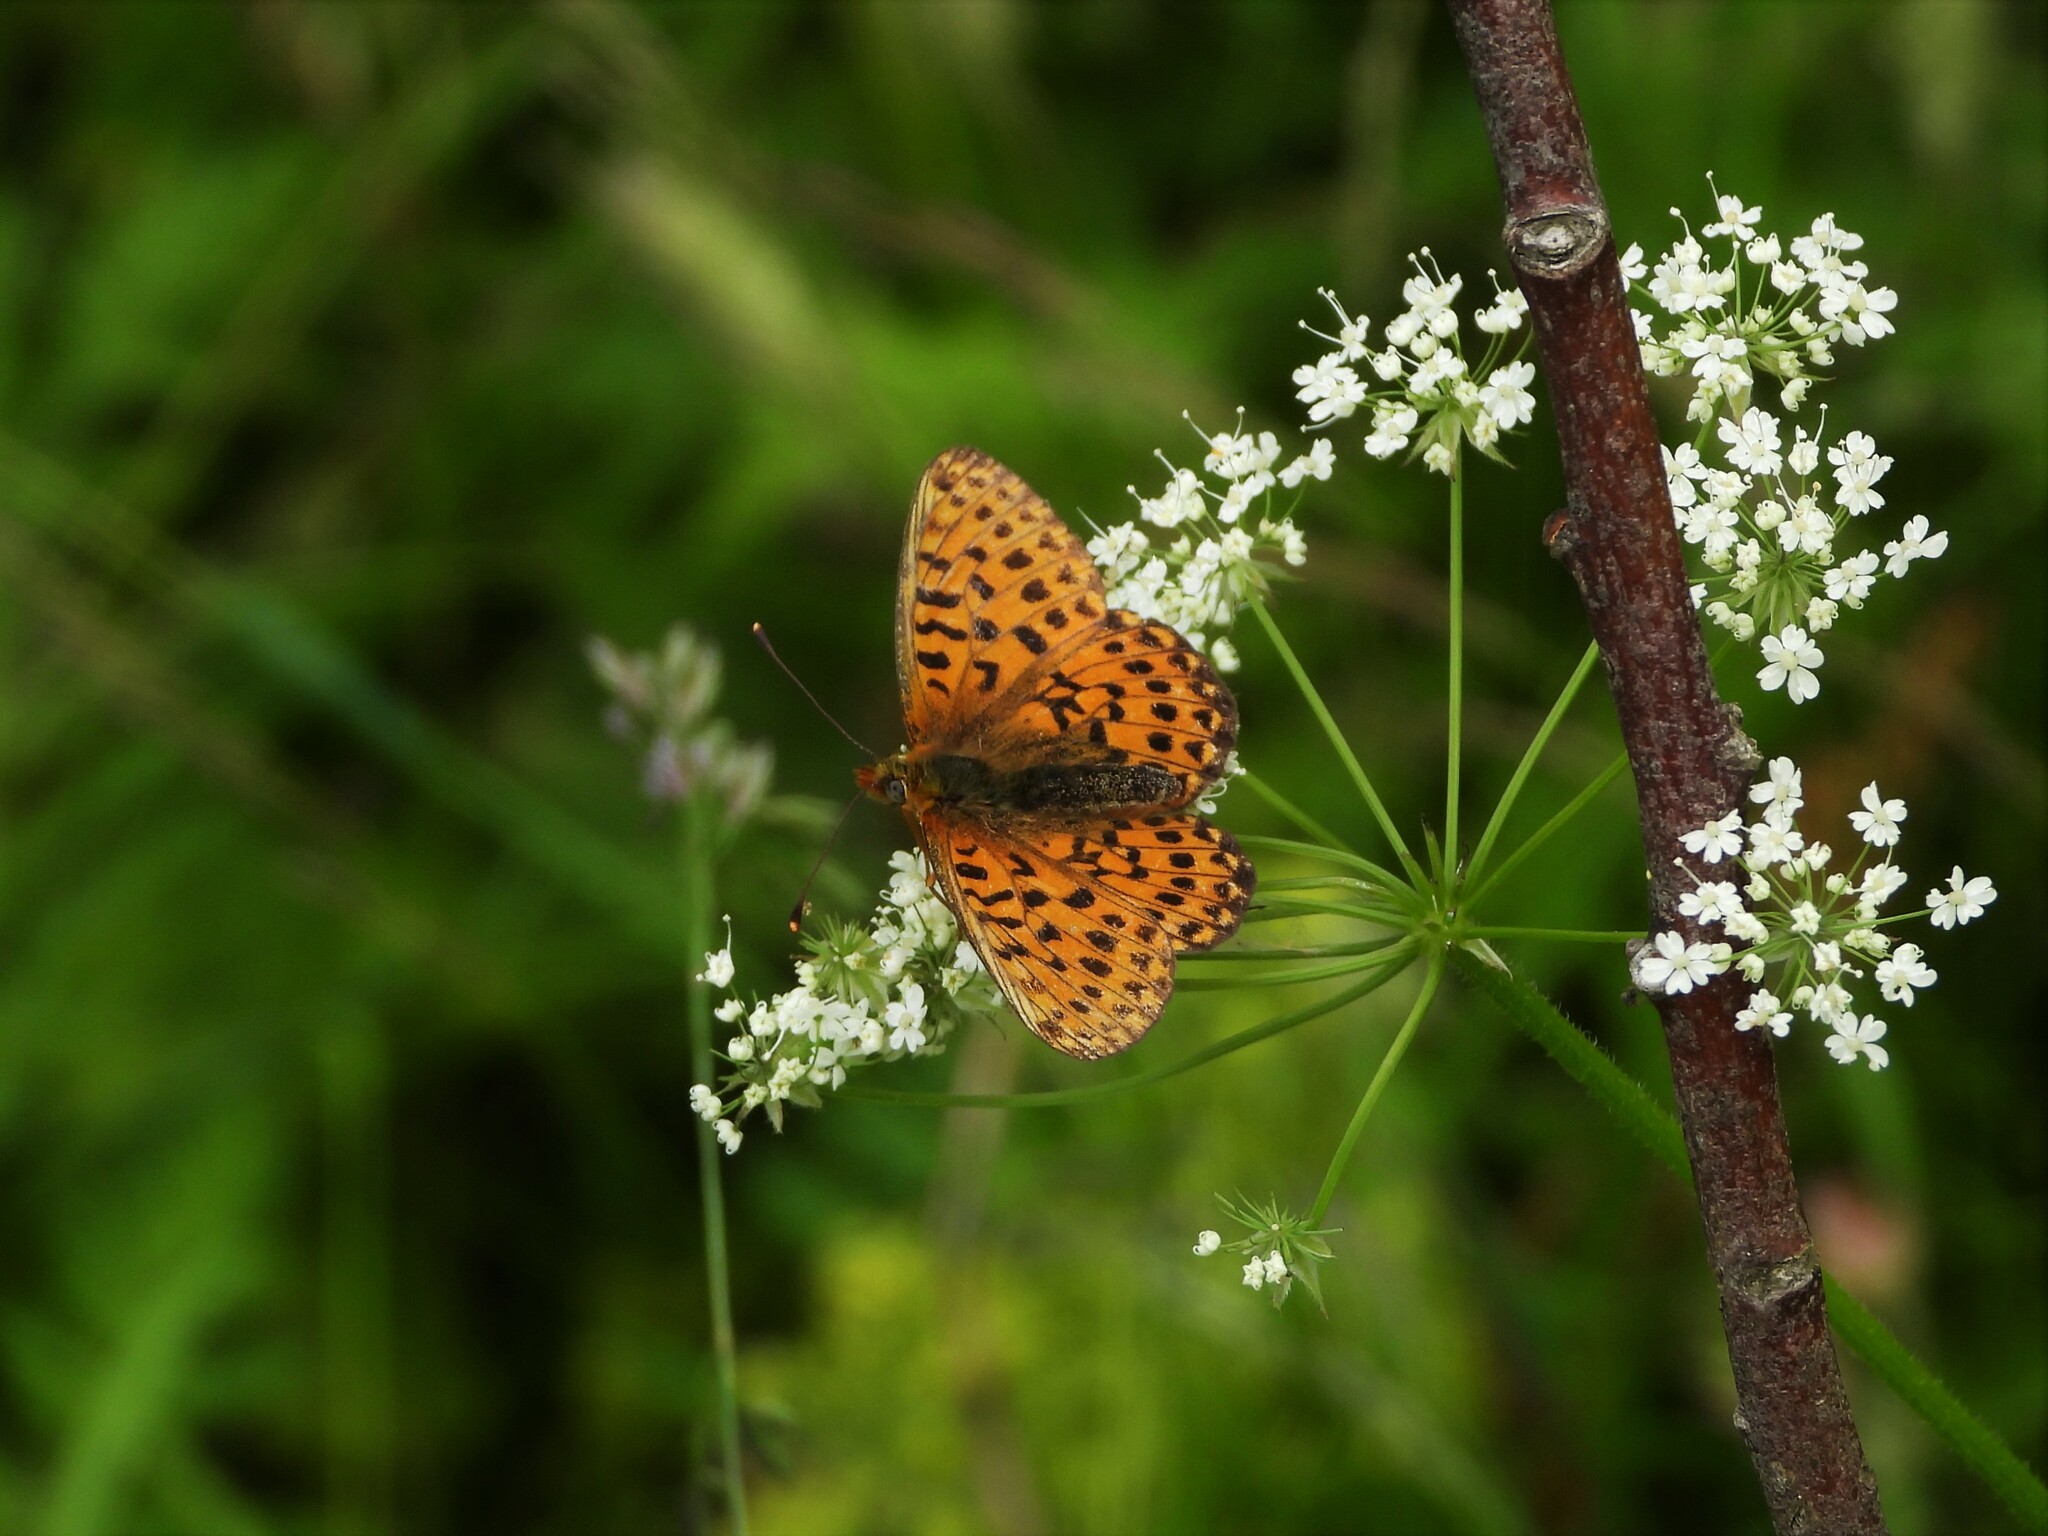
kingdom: Animalia
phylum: Arthropoda
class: Insecta
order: Lepidoptera
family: Nymphalidae
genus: Clossiana
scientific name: Clossiana euphrosyne
